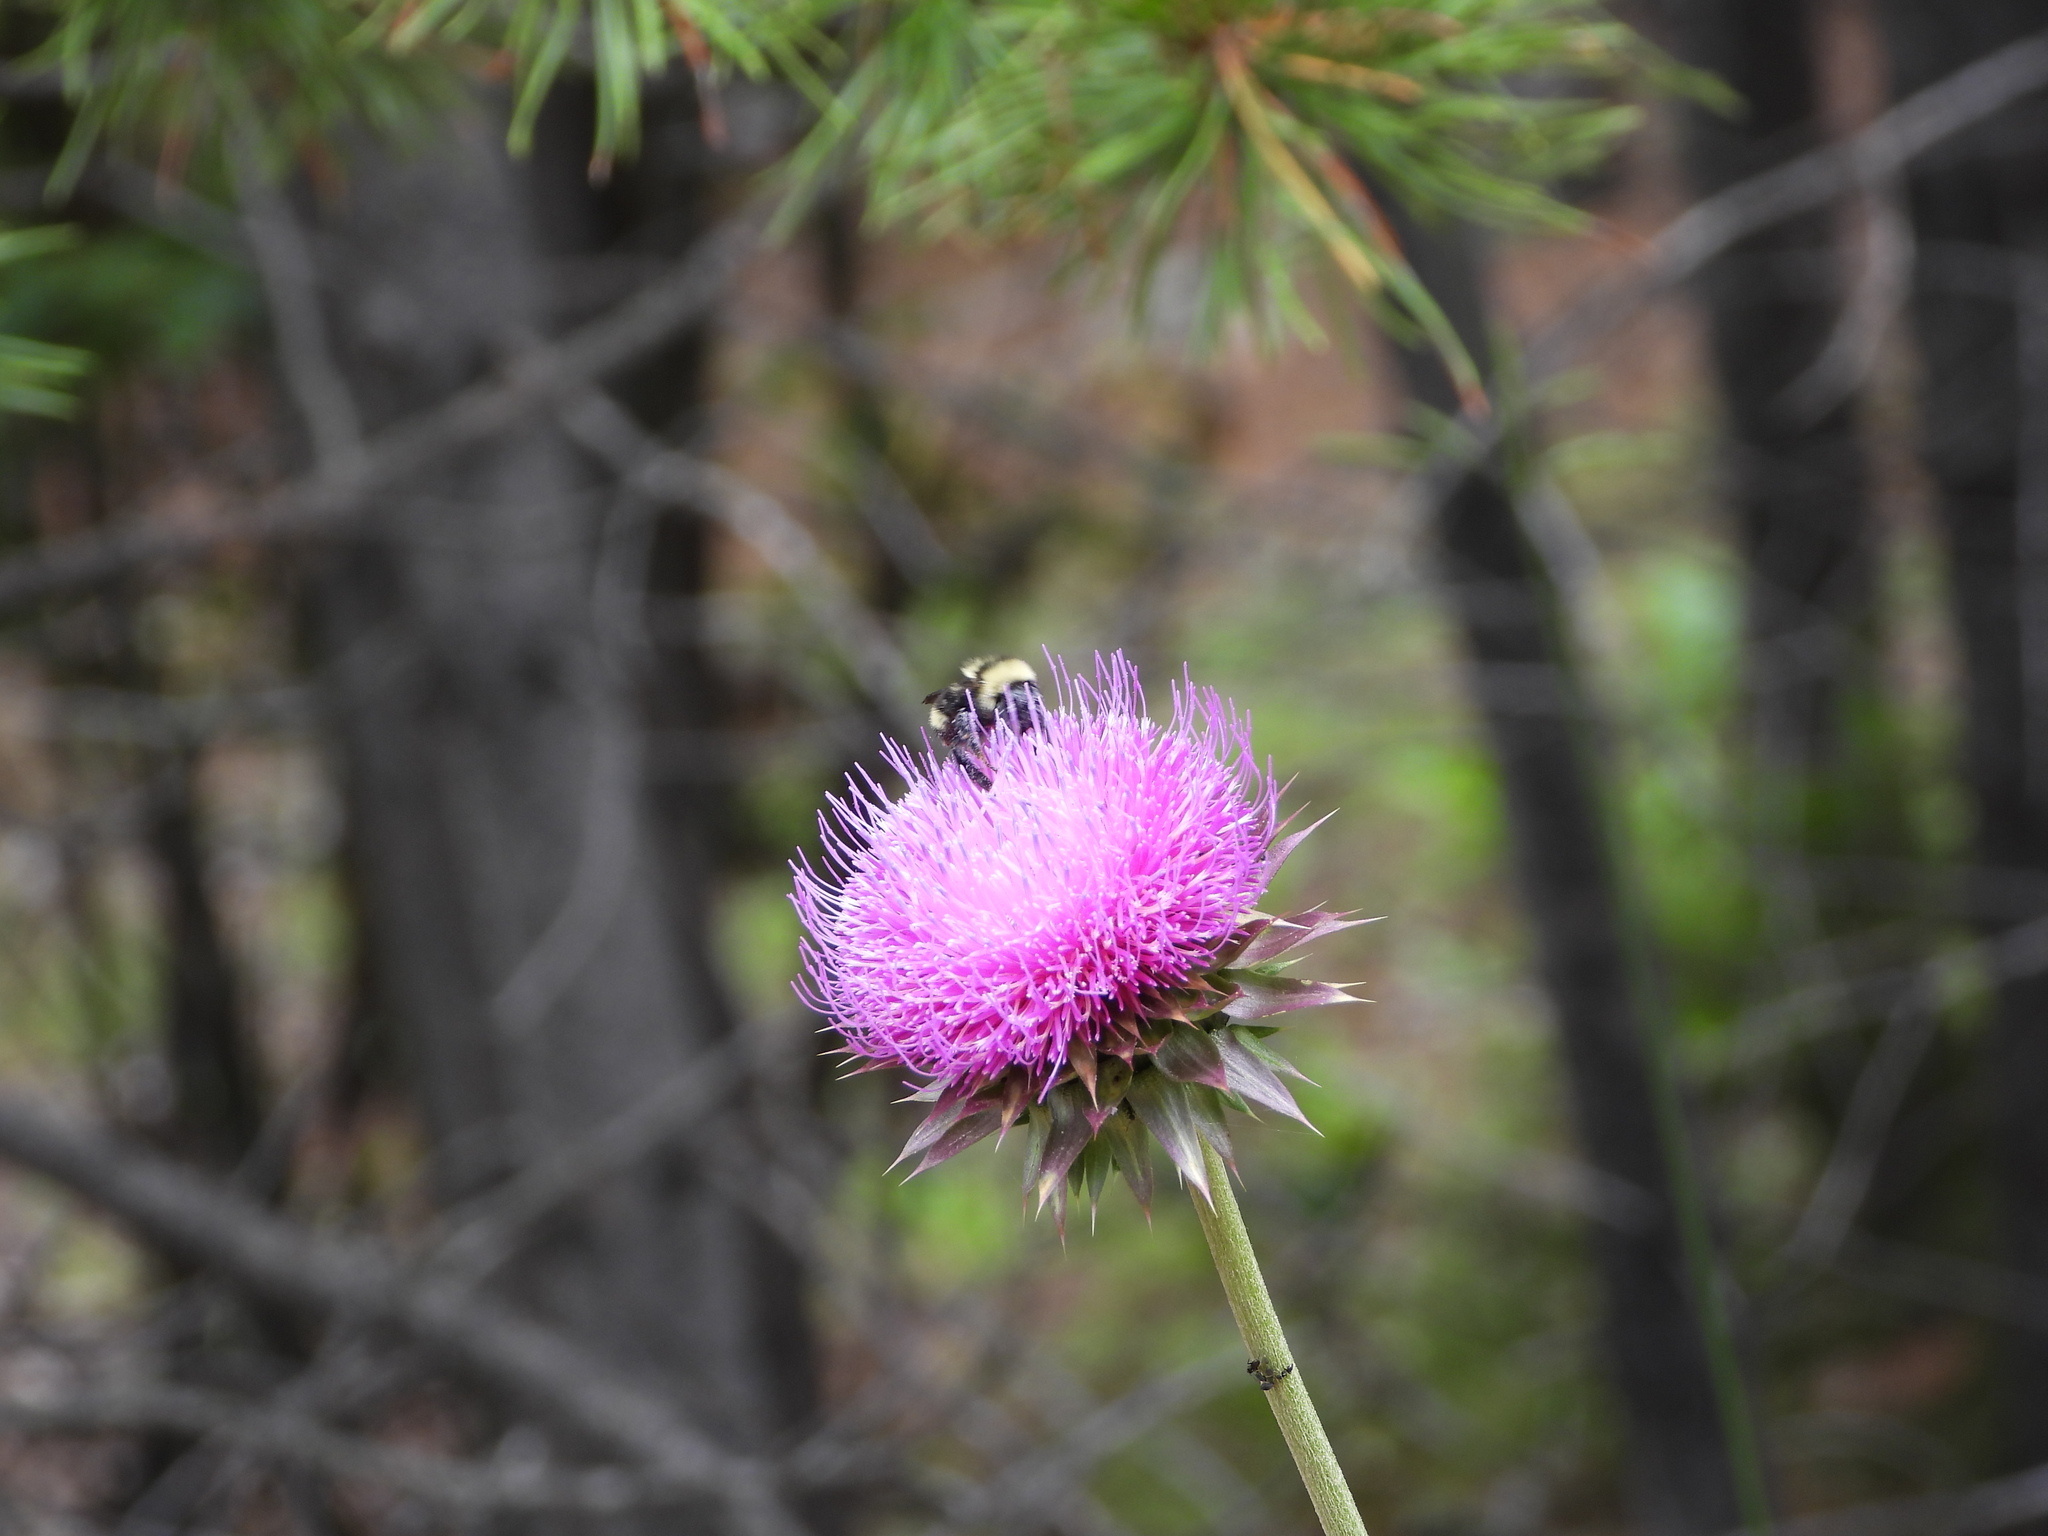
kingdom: Plantae
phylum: Tracheophyta
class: Magnoliopsida
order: Asterales
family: Asteraceae
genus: Carduus
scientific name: Carduus nutans
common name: Musk thistle
